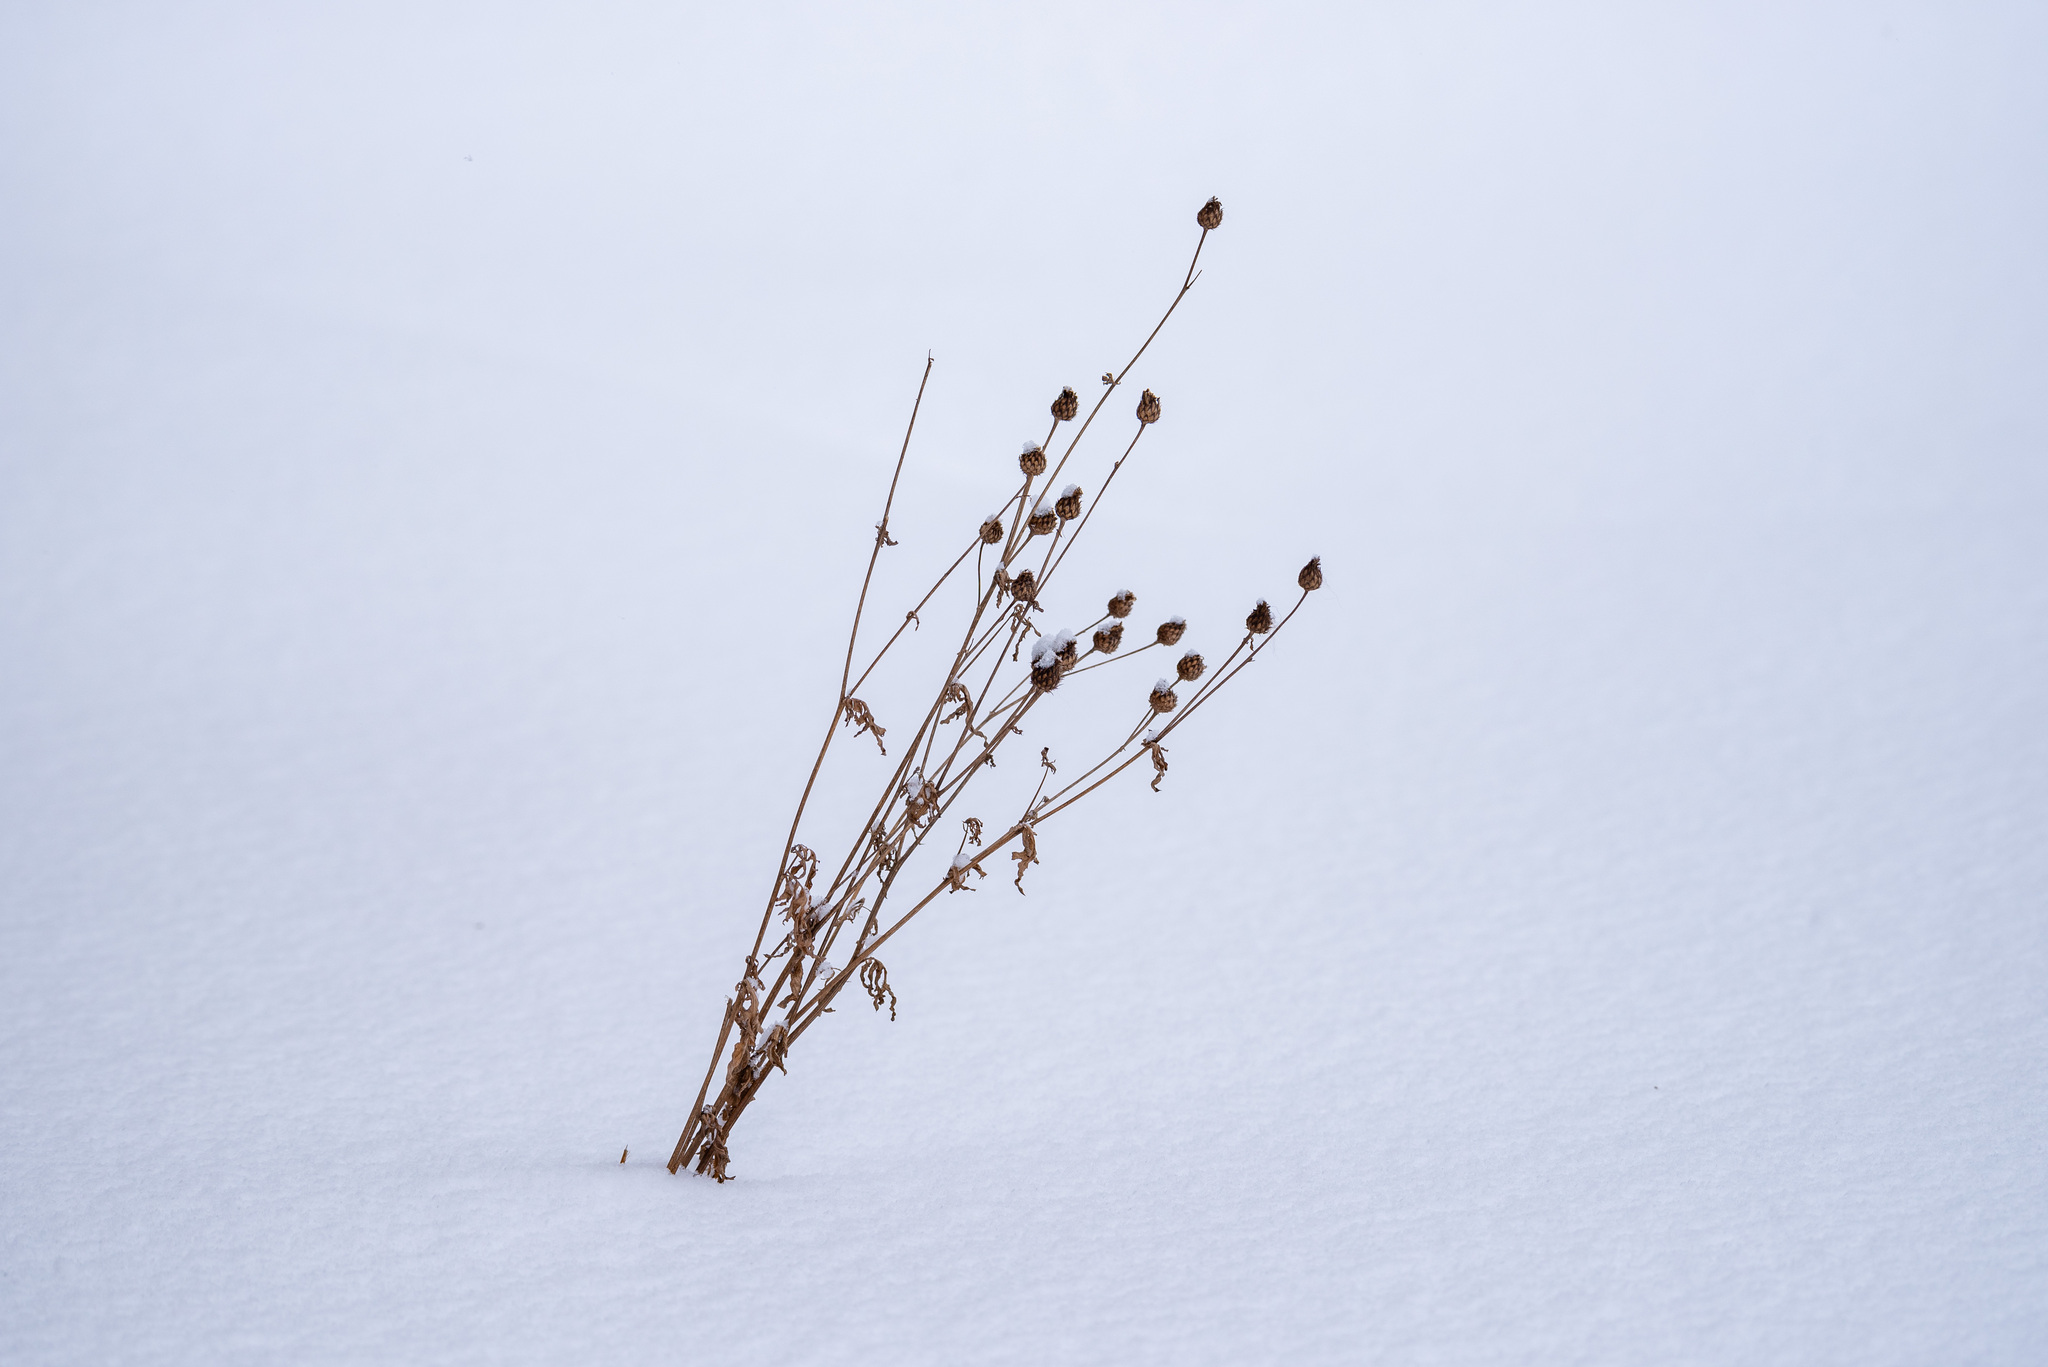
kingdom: Plantae
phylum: Tracheophyta
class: Magnoliopsida
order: Asterales
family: Asteraceae
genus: Centaurea
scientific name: Centaurea scabiosa
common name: Greater knapweed
